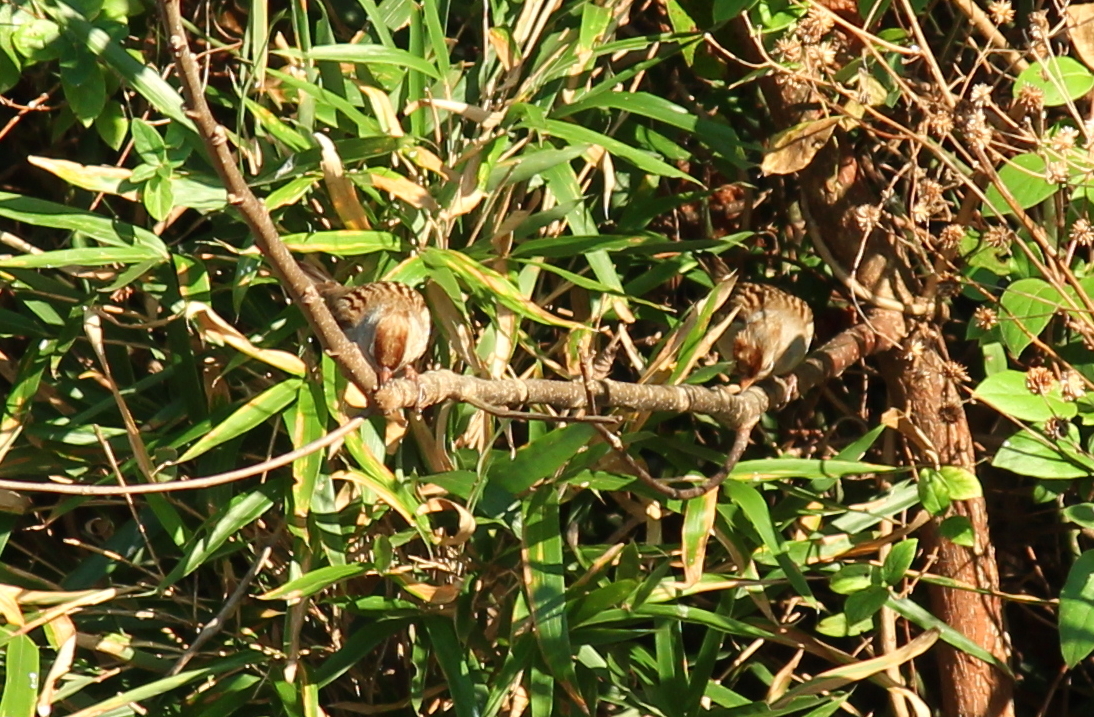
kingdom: Animalia
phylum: Chordata
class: Aves
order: Passeriformes
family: Passerellidae
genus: Zonotrichia
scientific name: Zonotrichia leucophrys
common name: White-crowned sparrow
